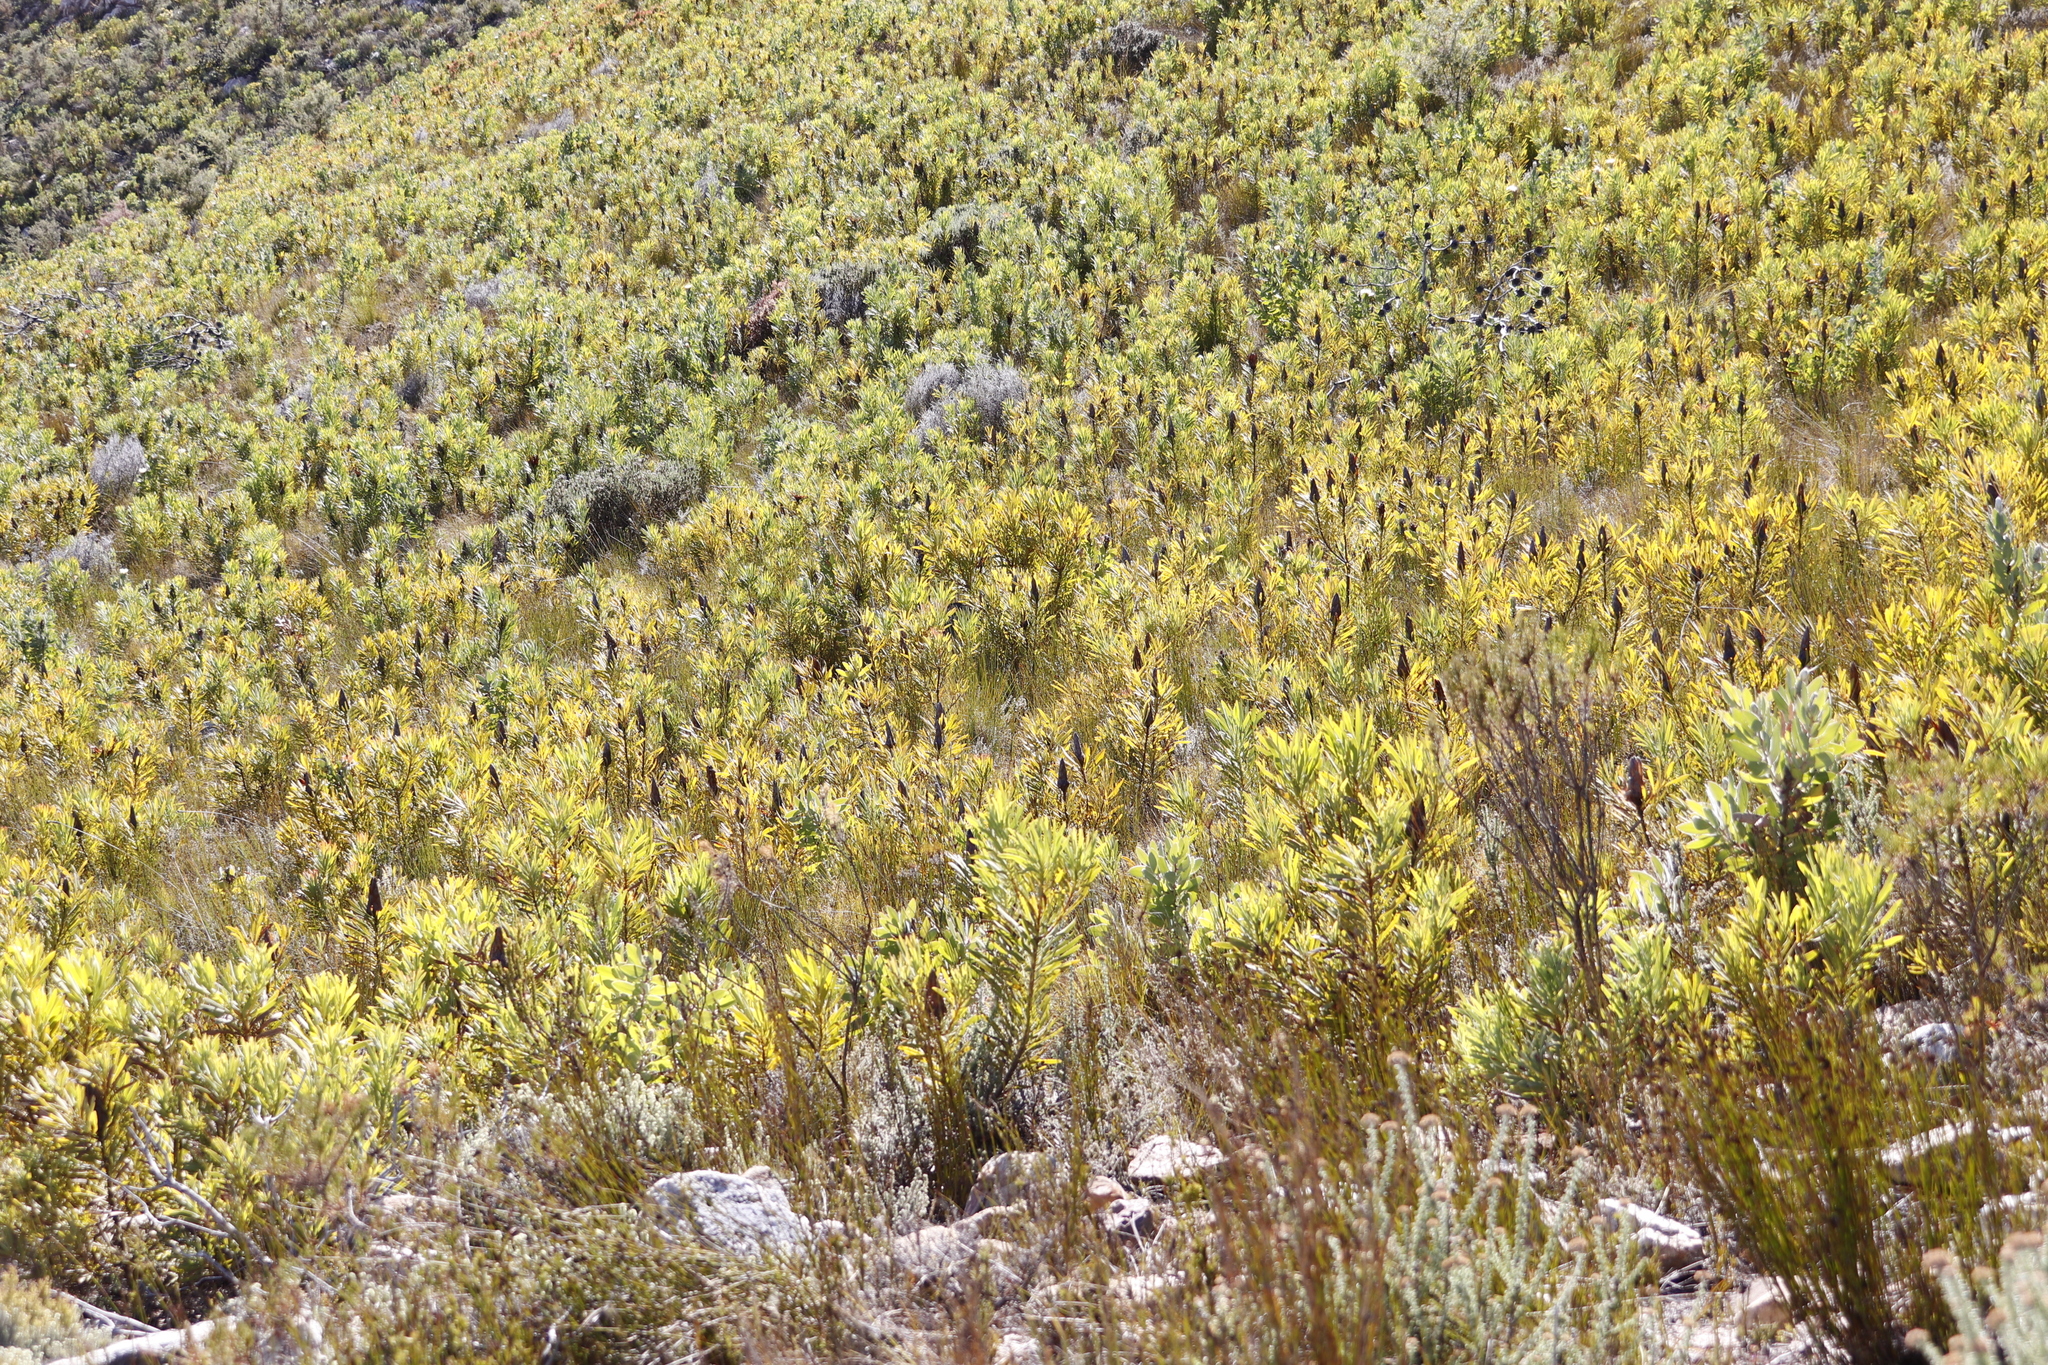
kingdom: Plantae
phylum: Tracheophyta
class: Magnoliopsida
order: Proteales
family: Proteaceae
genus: Protea
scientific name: Protea repens
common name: Sugarbush
